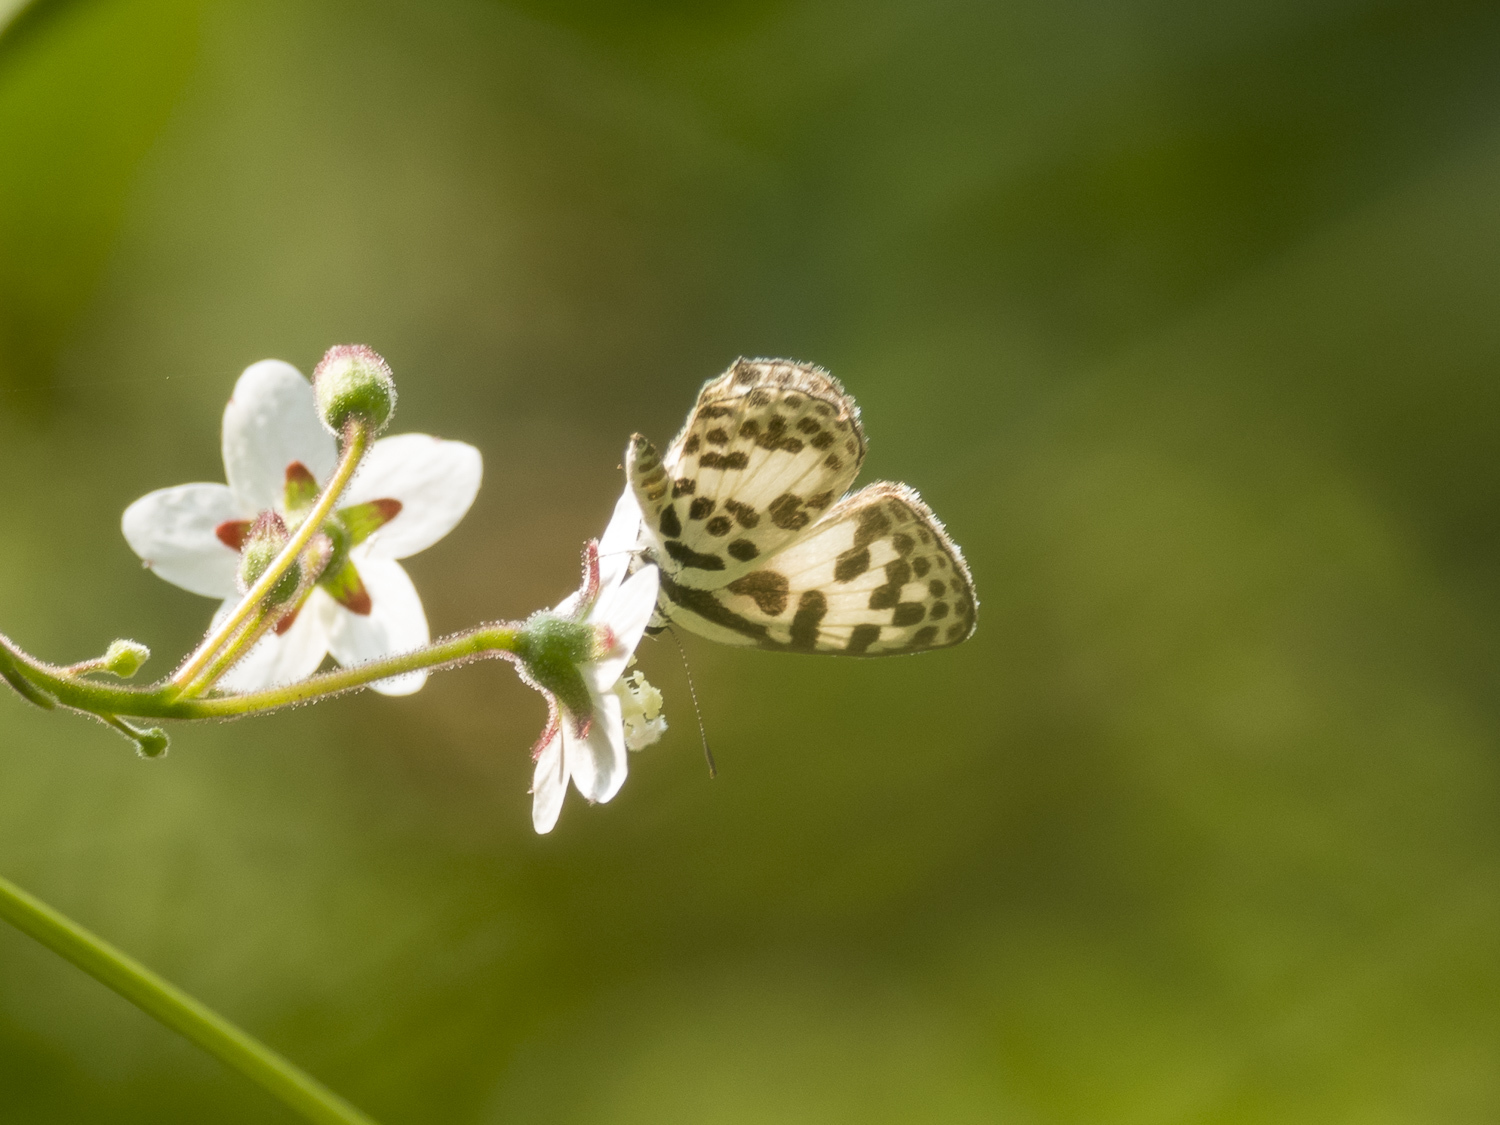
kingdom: Animalia
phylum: Arthropoda
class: Insecta
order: Lepidoptera
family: Lycaenidae
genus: Castalius
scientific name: Castalius rosimon
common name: Common pierrot
